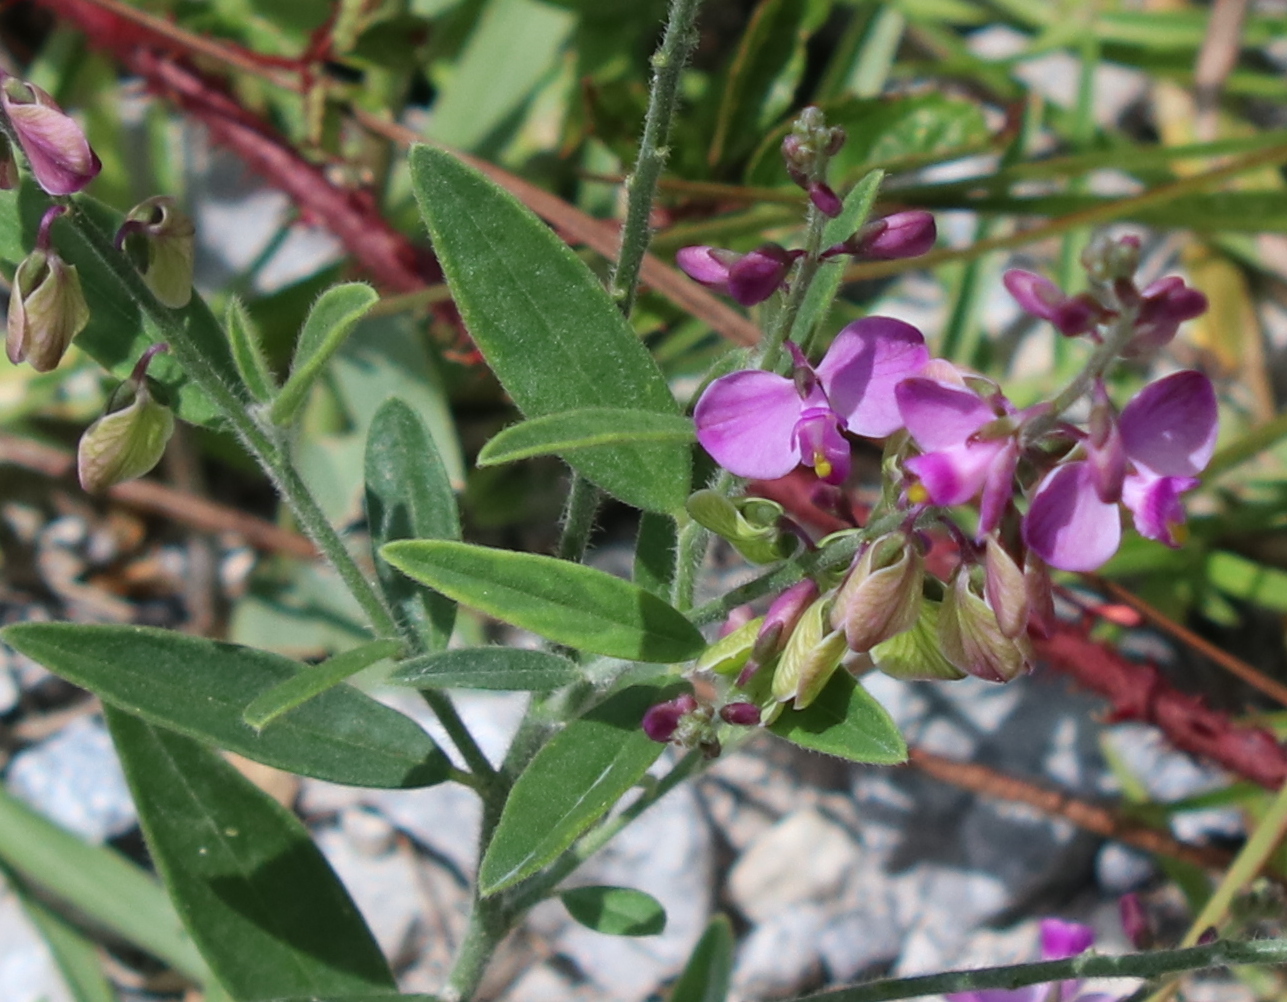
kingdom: Plantae
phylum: Tracheophyta
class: Magnoliopsida
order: Fabales
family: Polygalaceae
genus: Asemeia
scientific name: Asemeia grandiflora
